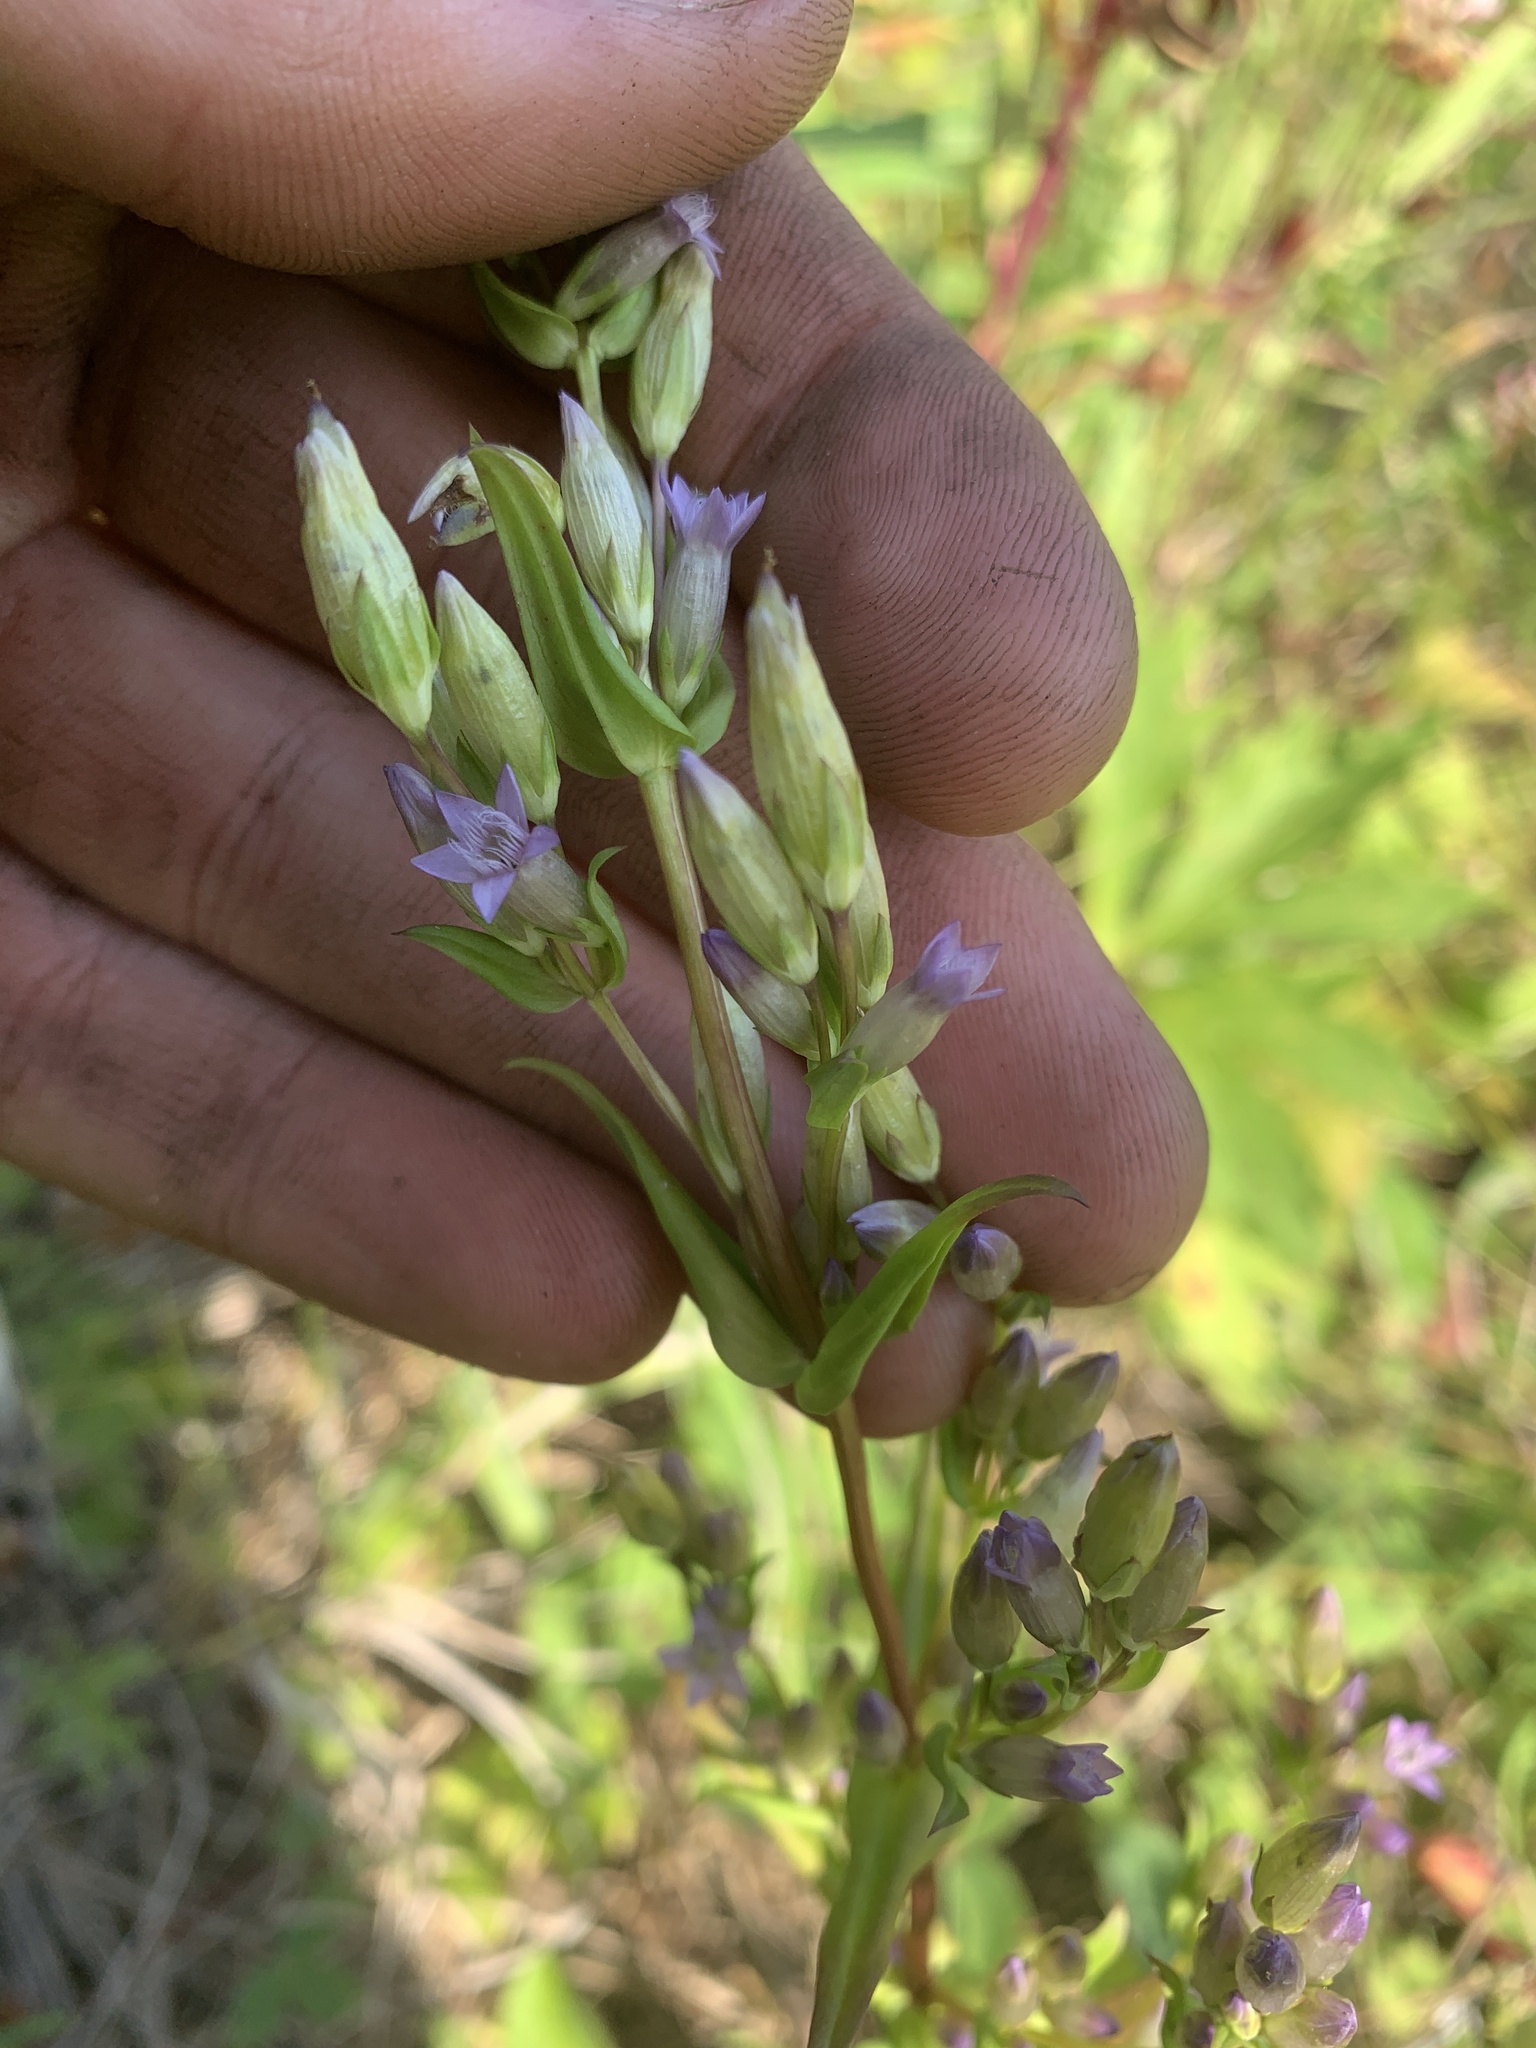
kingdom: Plantae
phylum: Tracheophyta
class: Magnoliopsida
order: Gentianales
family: Gentianaceae
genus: Gentianella
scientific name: Gentianella amarella
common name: Autumn gentian
